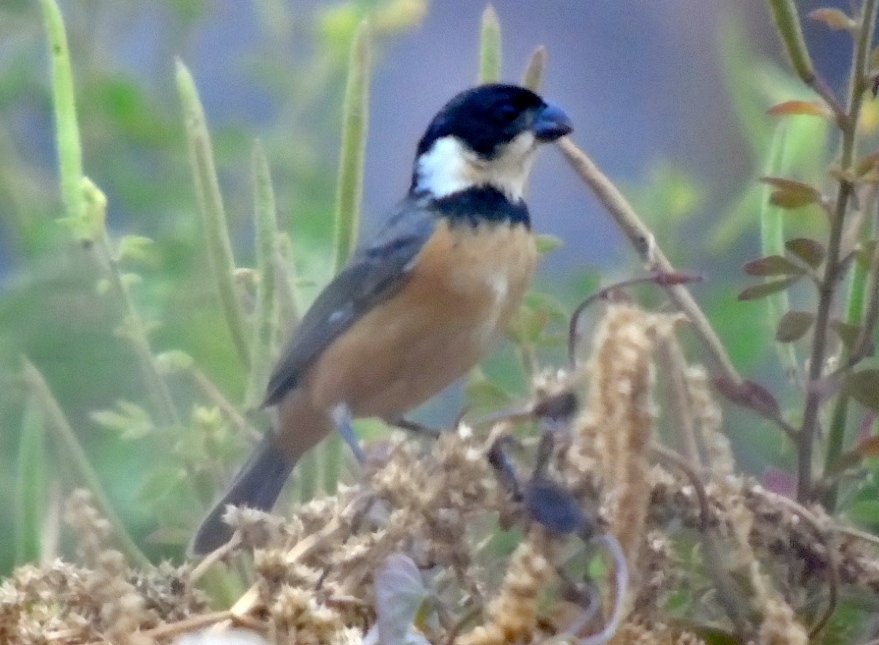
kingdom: Animalia
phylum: Chordata
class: Aves
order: Passeriformes
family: Thraupidae
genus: Sporophila
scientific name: Sporophila torqueola
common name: White-collared seedeater
